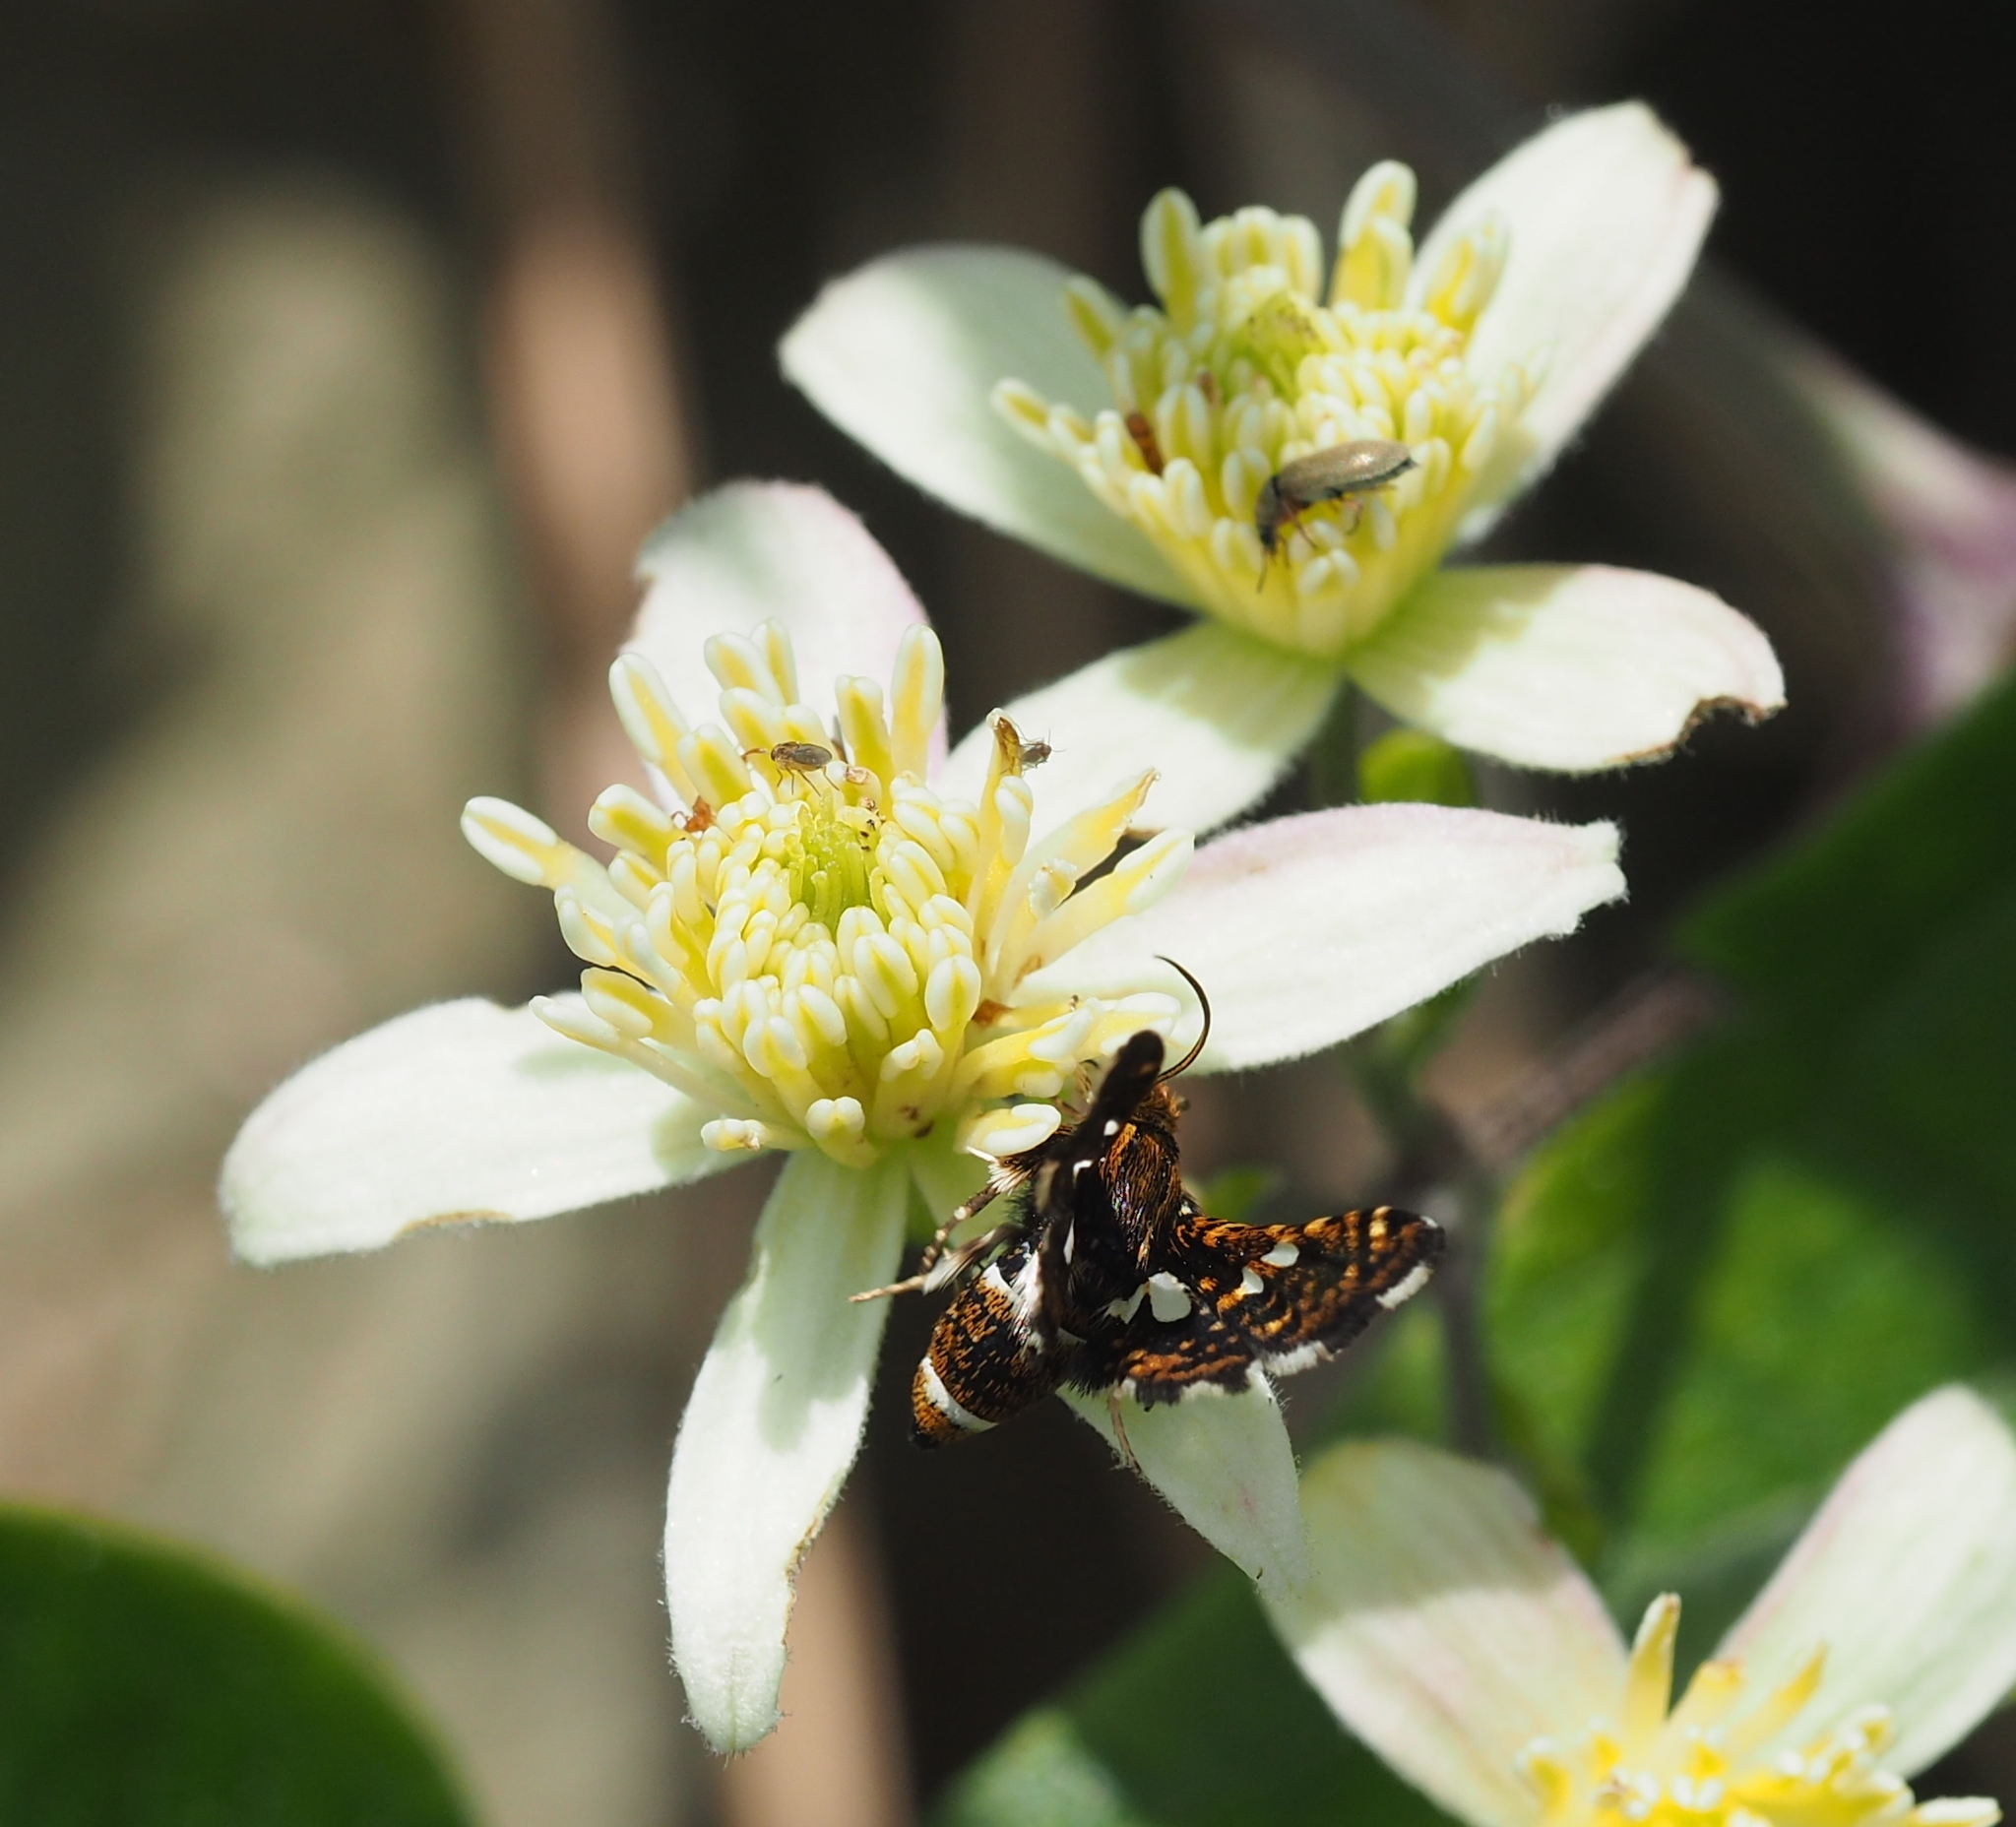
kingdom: Animalia
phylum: Arthropoda
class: Insecta
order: Lepidoptera
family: Thyrididae
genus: Thyris
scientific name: Thyris fenestrella
